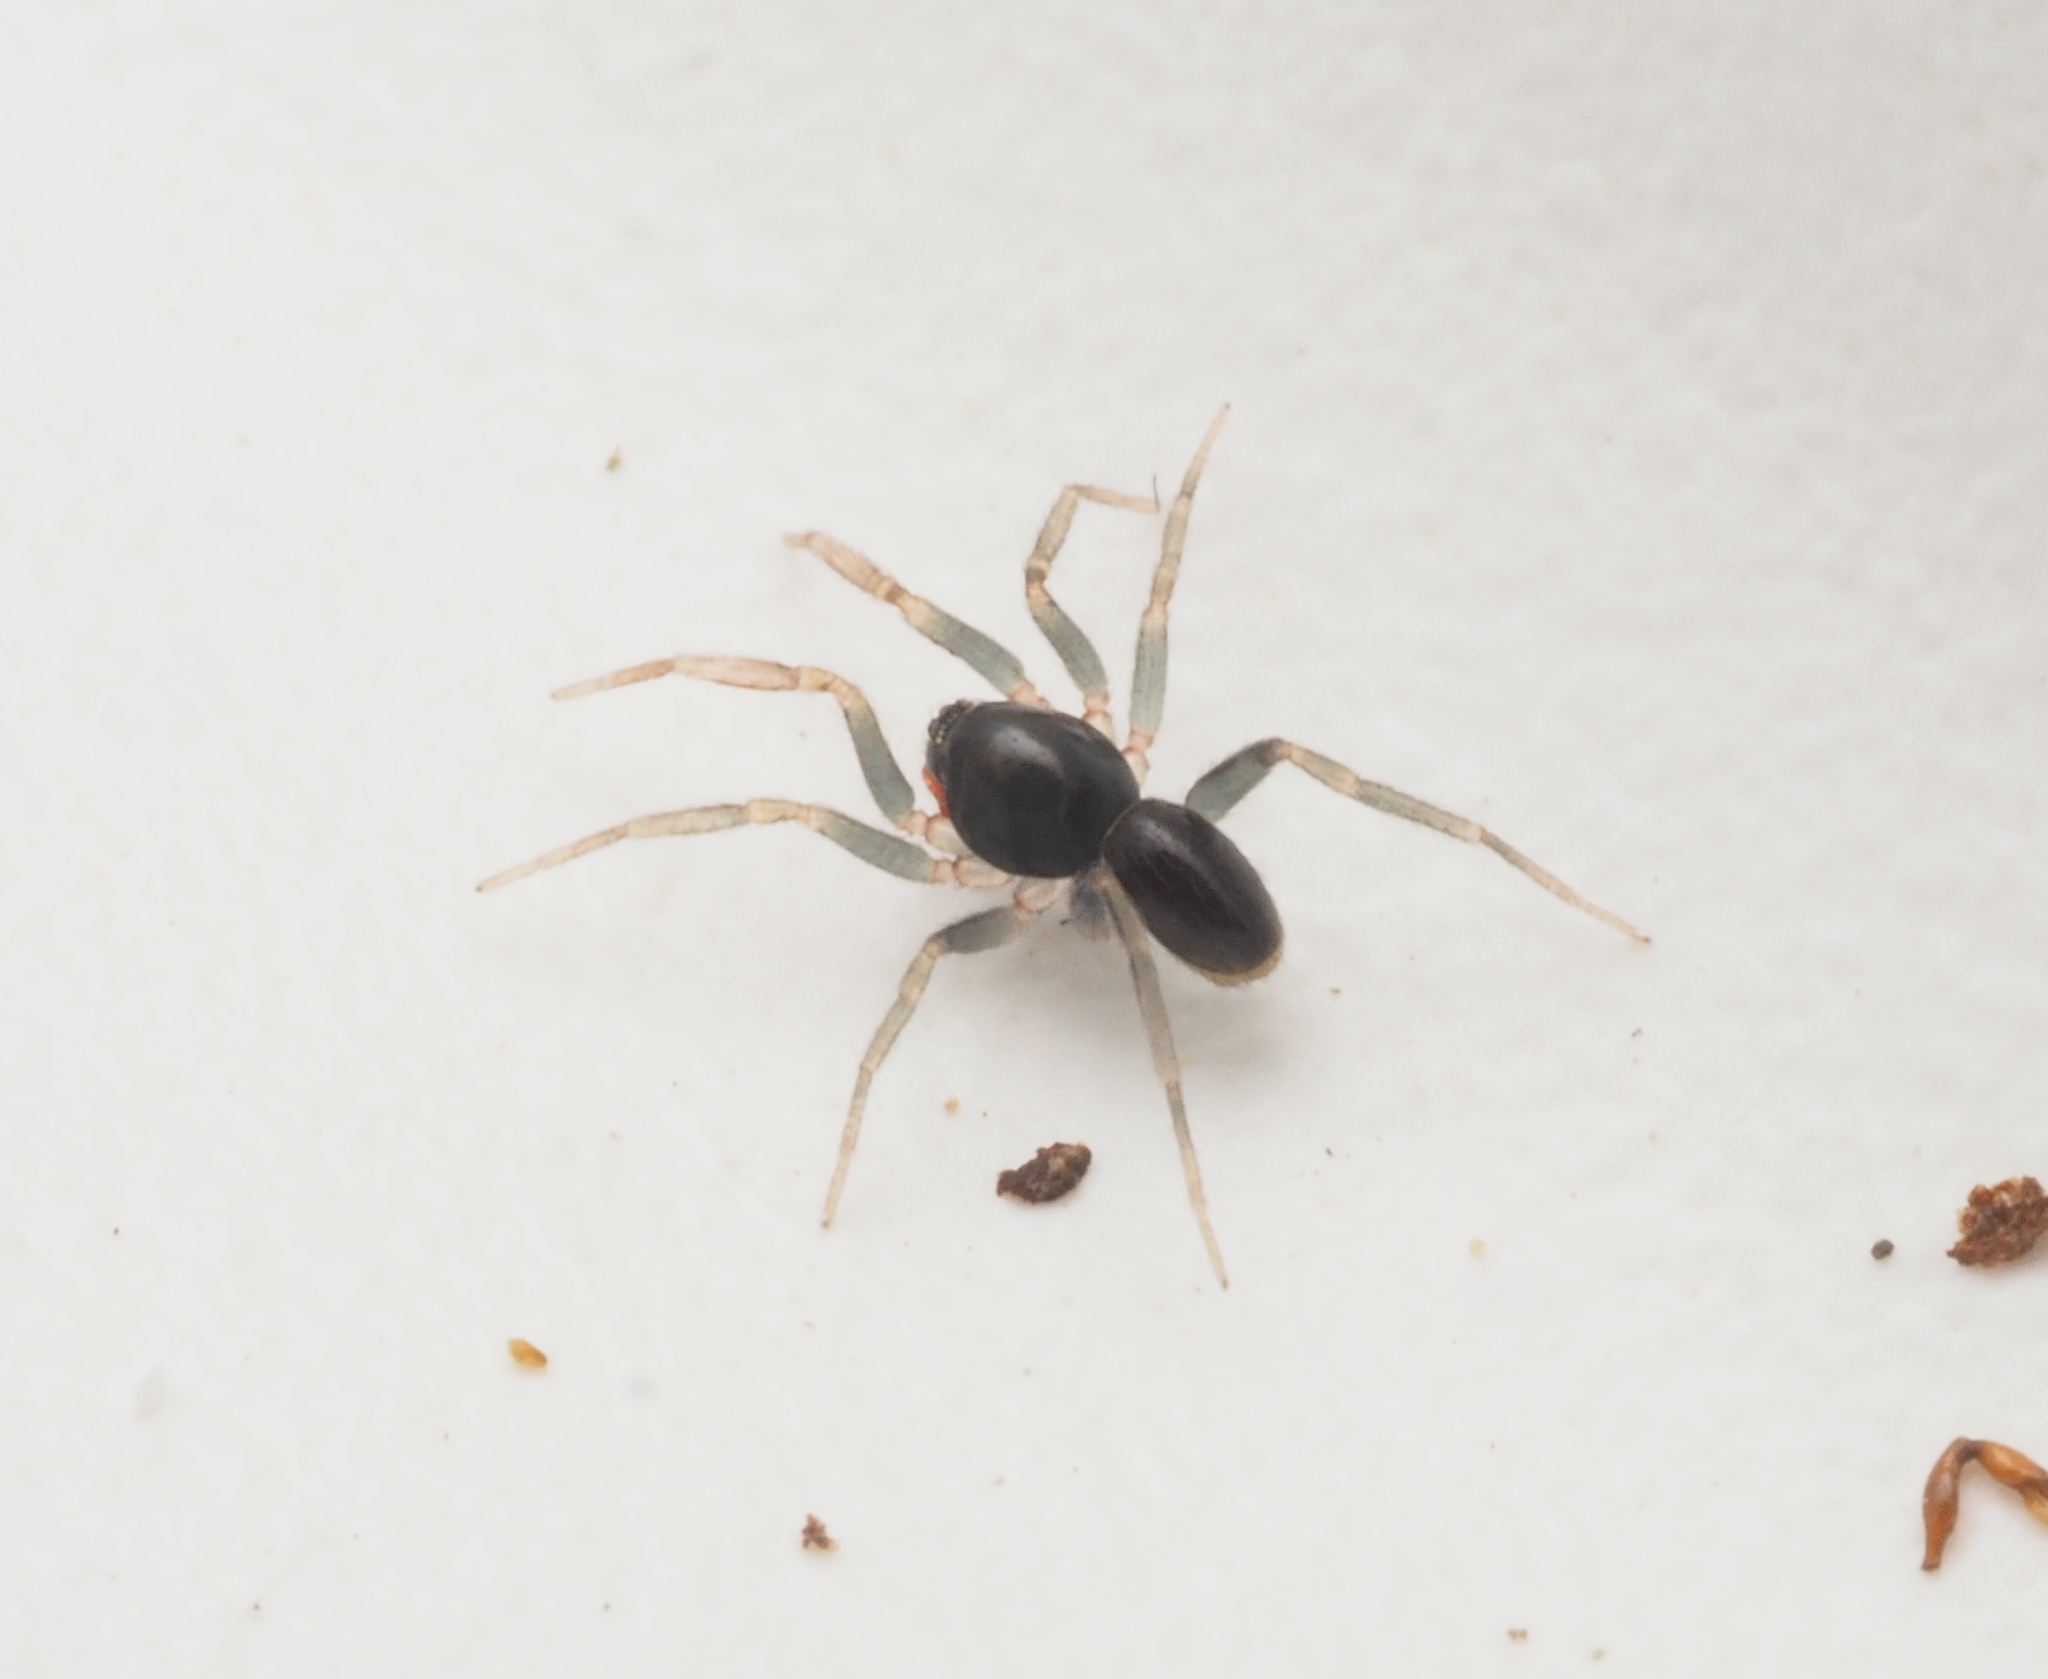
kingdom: Animalia
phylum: Arthropoda
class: Arachnida
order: Araneae
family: Oonopidae
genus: Ischnothyreus
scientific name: Ischnothyreus
